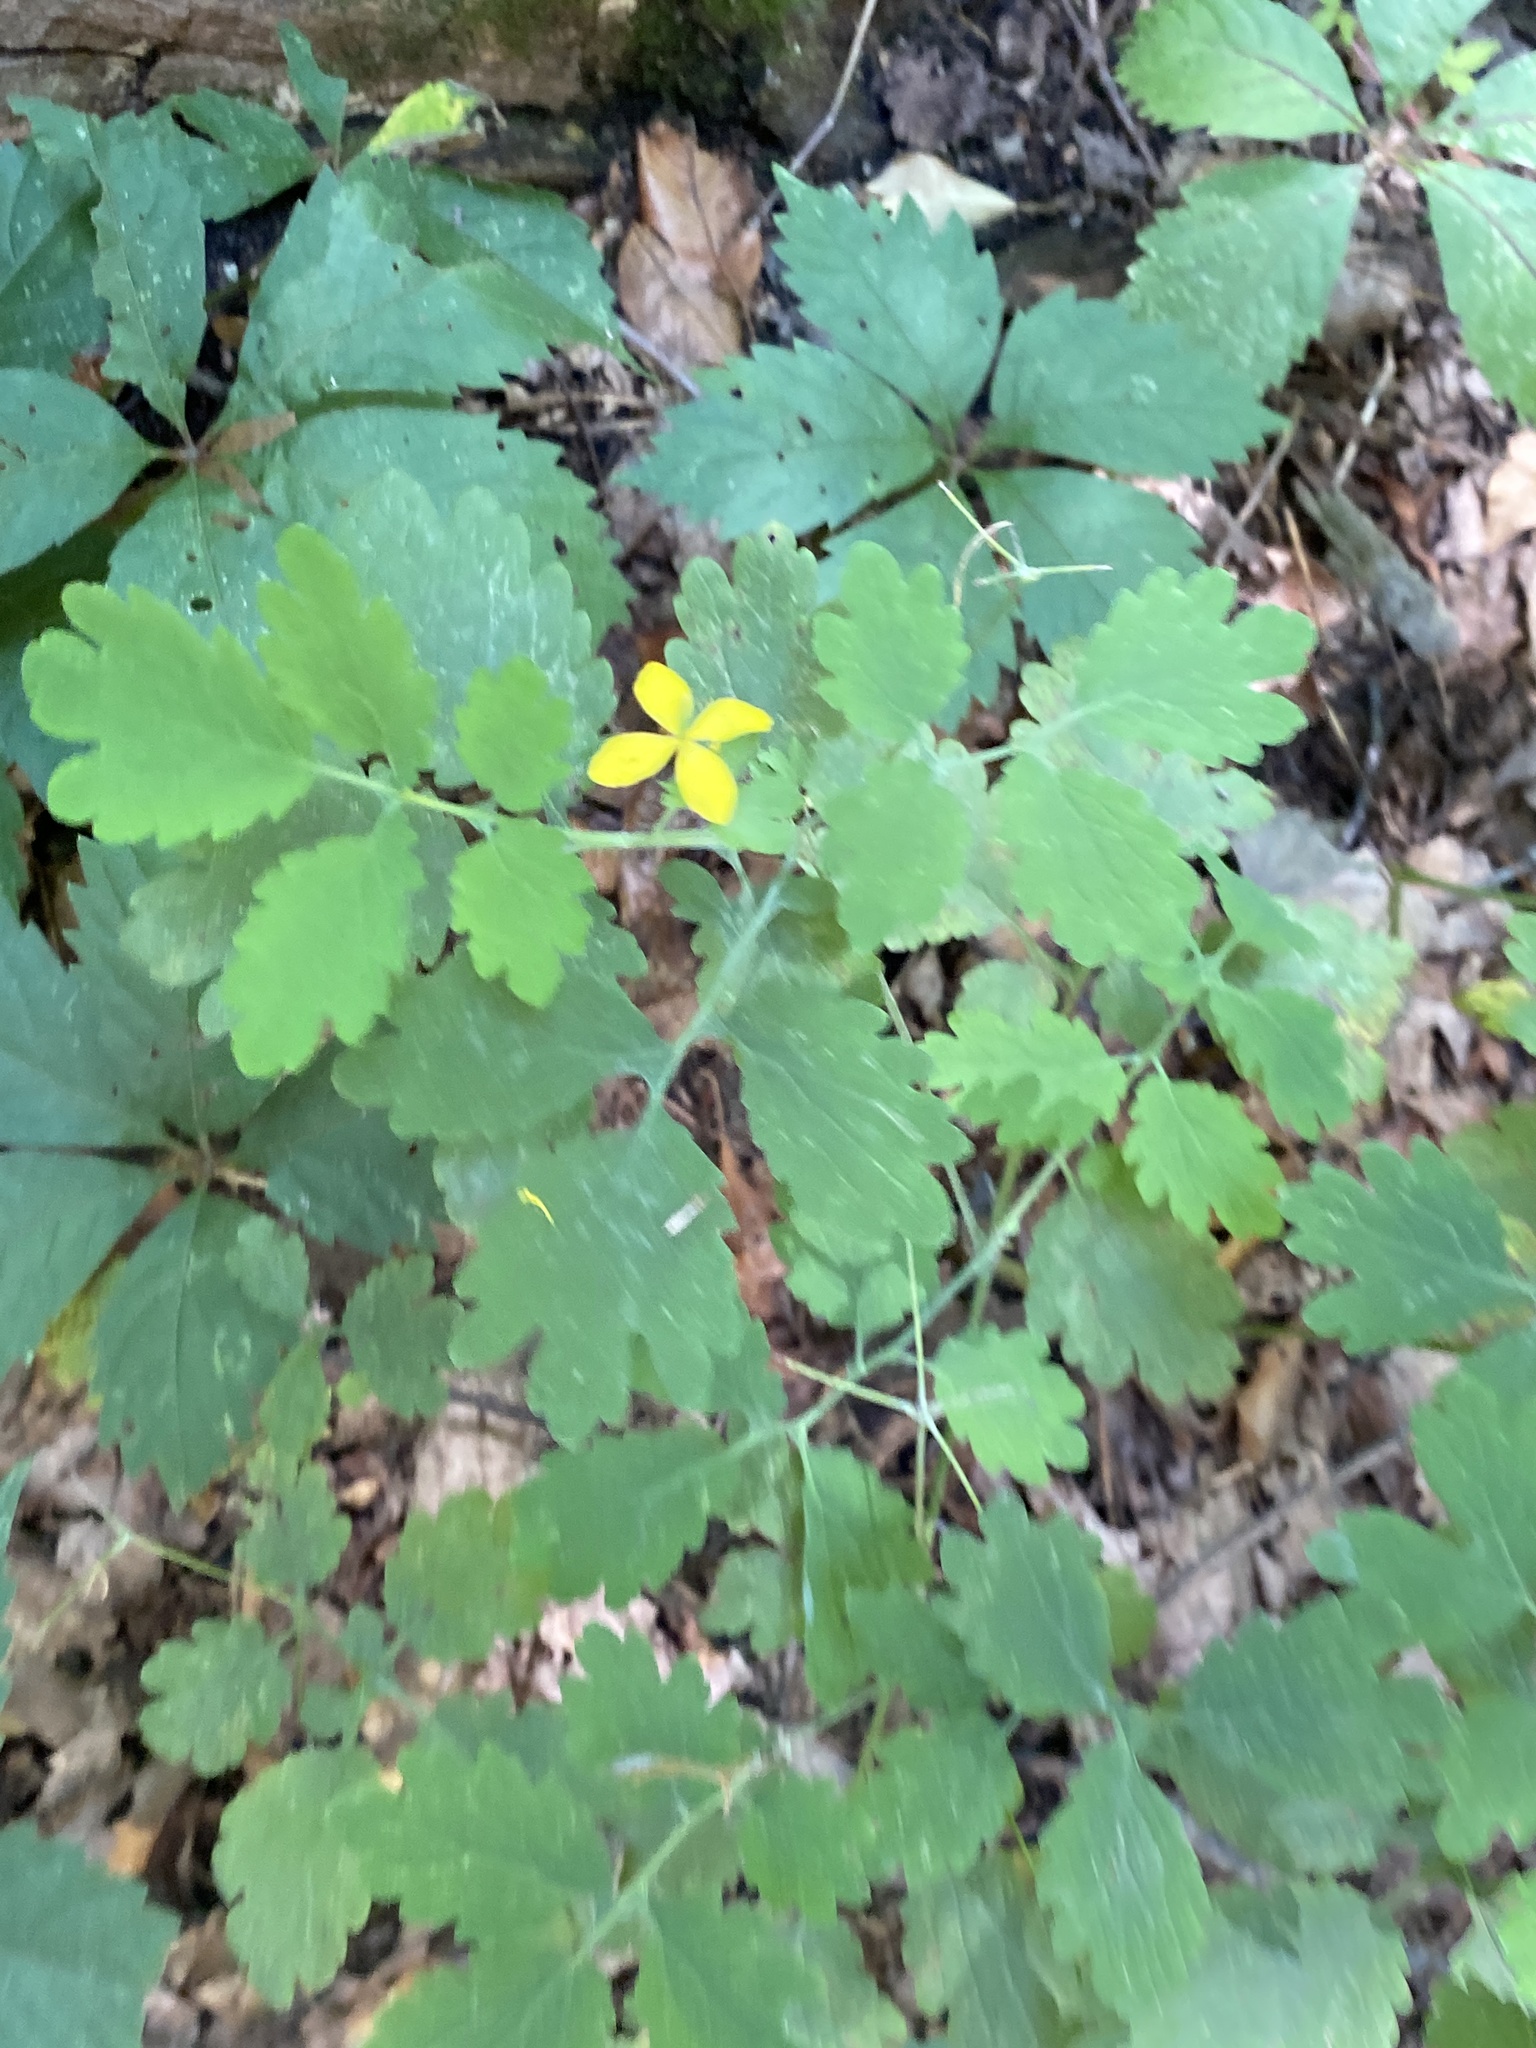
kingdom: Plantae
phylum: Tracheophyta
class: Magnoliopsida
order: Ranunculales
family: Papaveraceae
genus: Chelidonium
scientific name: Chelidonium majus
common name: Greater celandine
